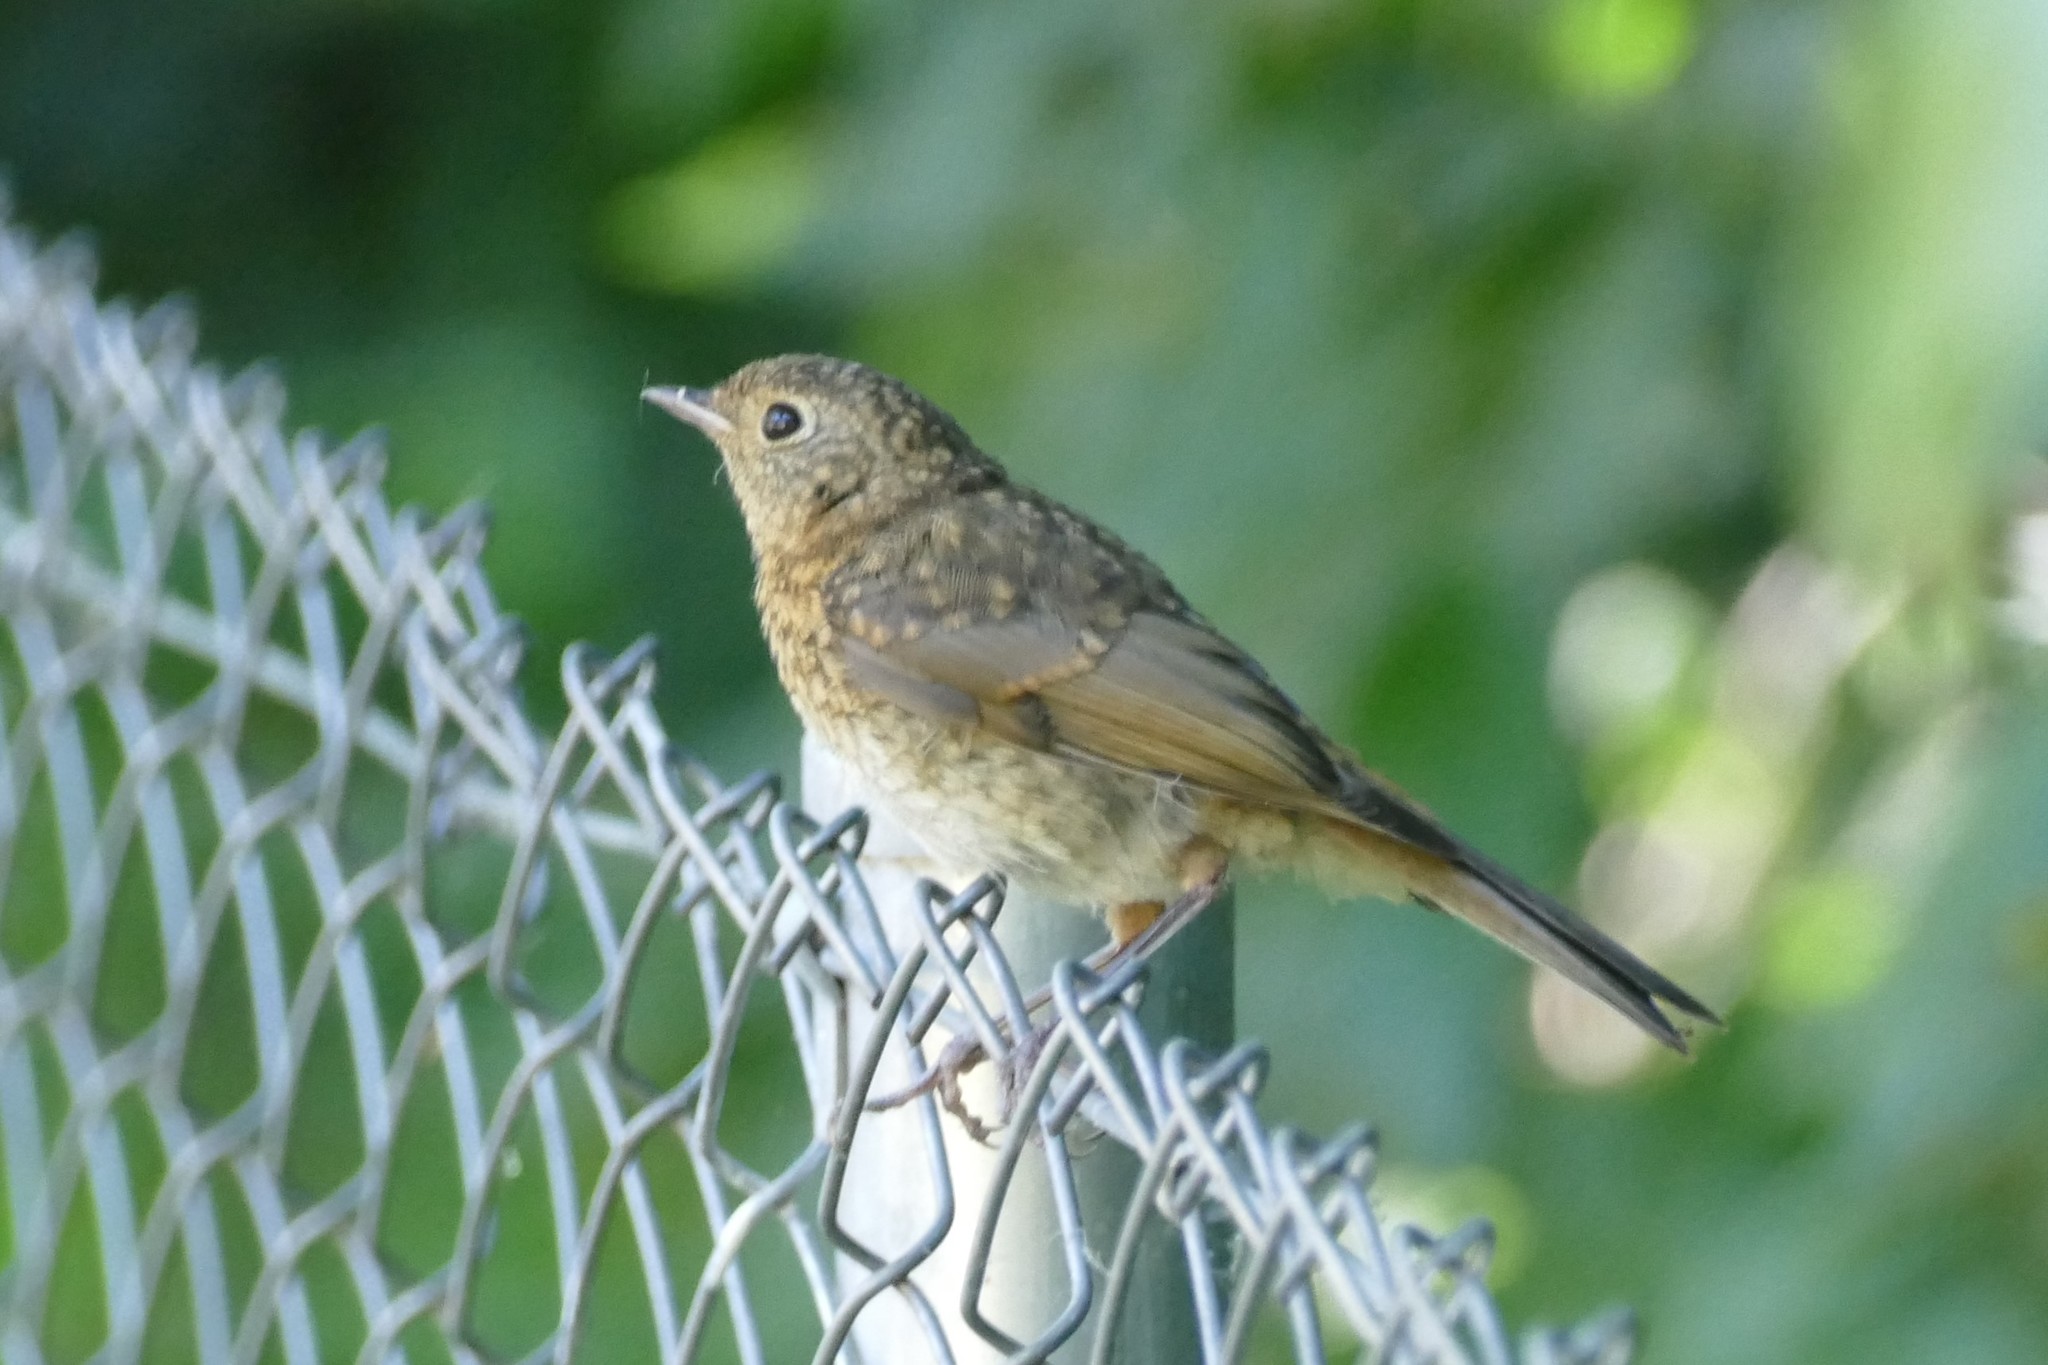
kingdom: Animalia
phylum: Chordata
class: Aves
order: Passeriformes
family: Muscicapidae
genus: Erithacus
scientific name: Erithacus rubecula
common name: European robin
